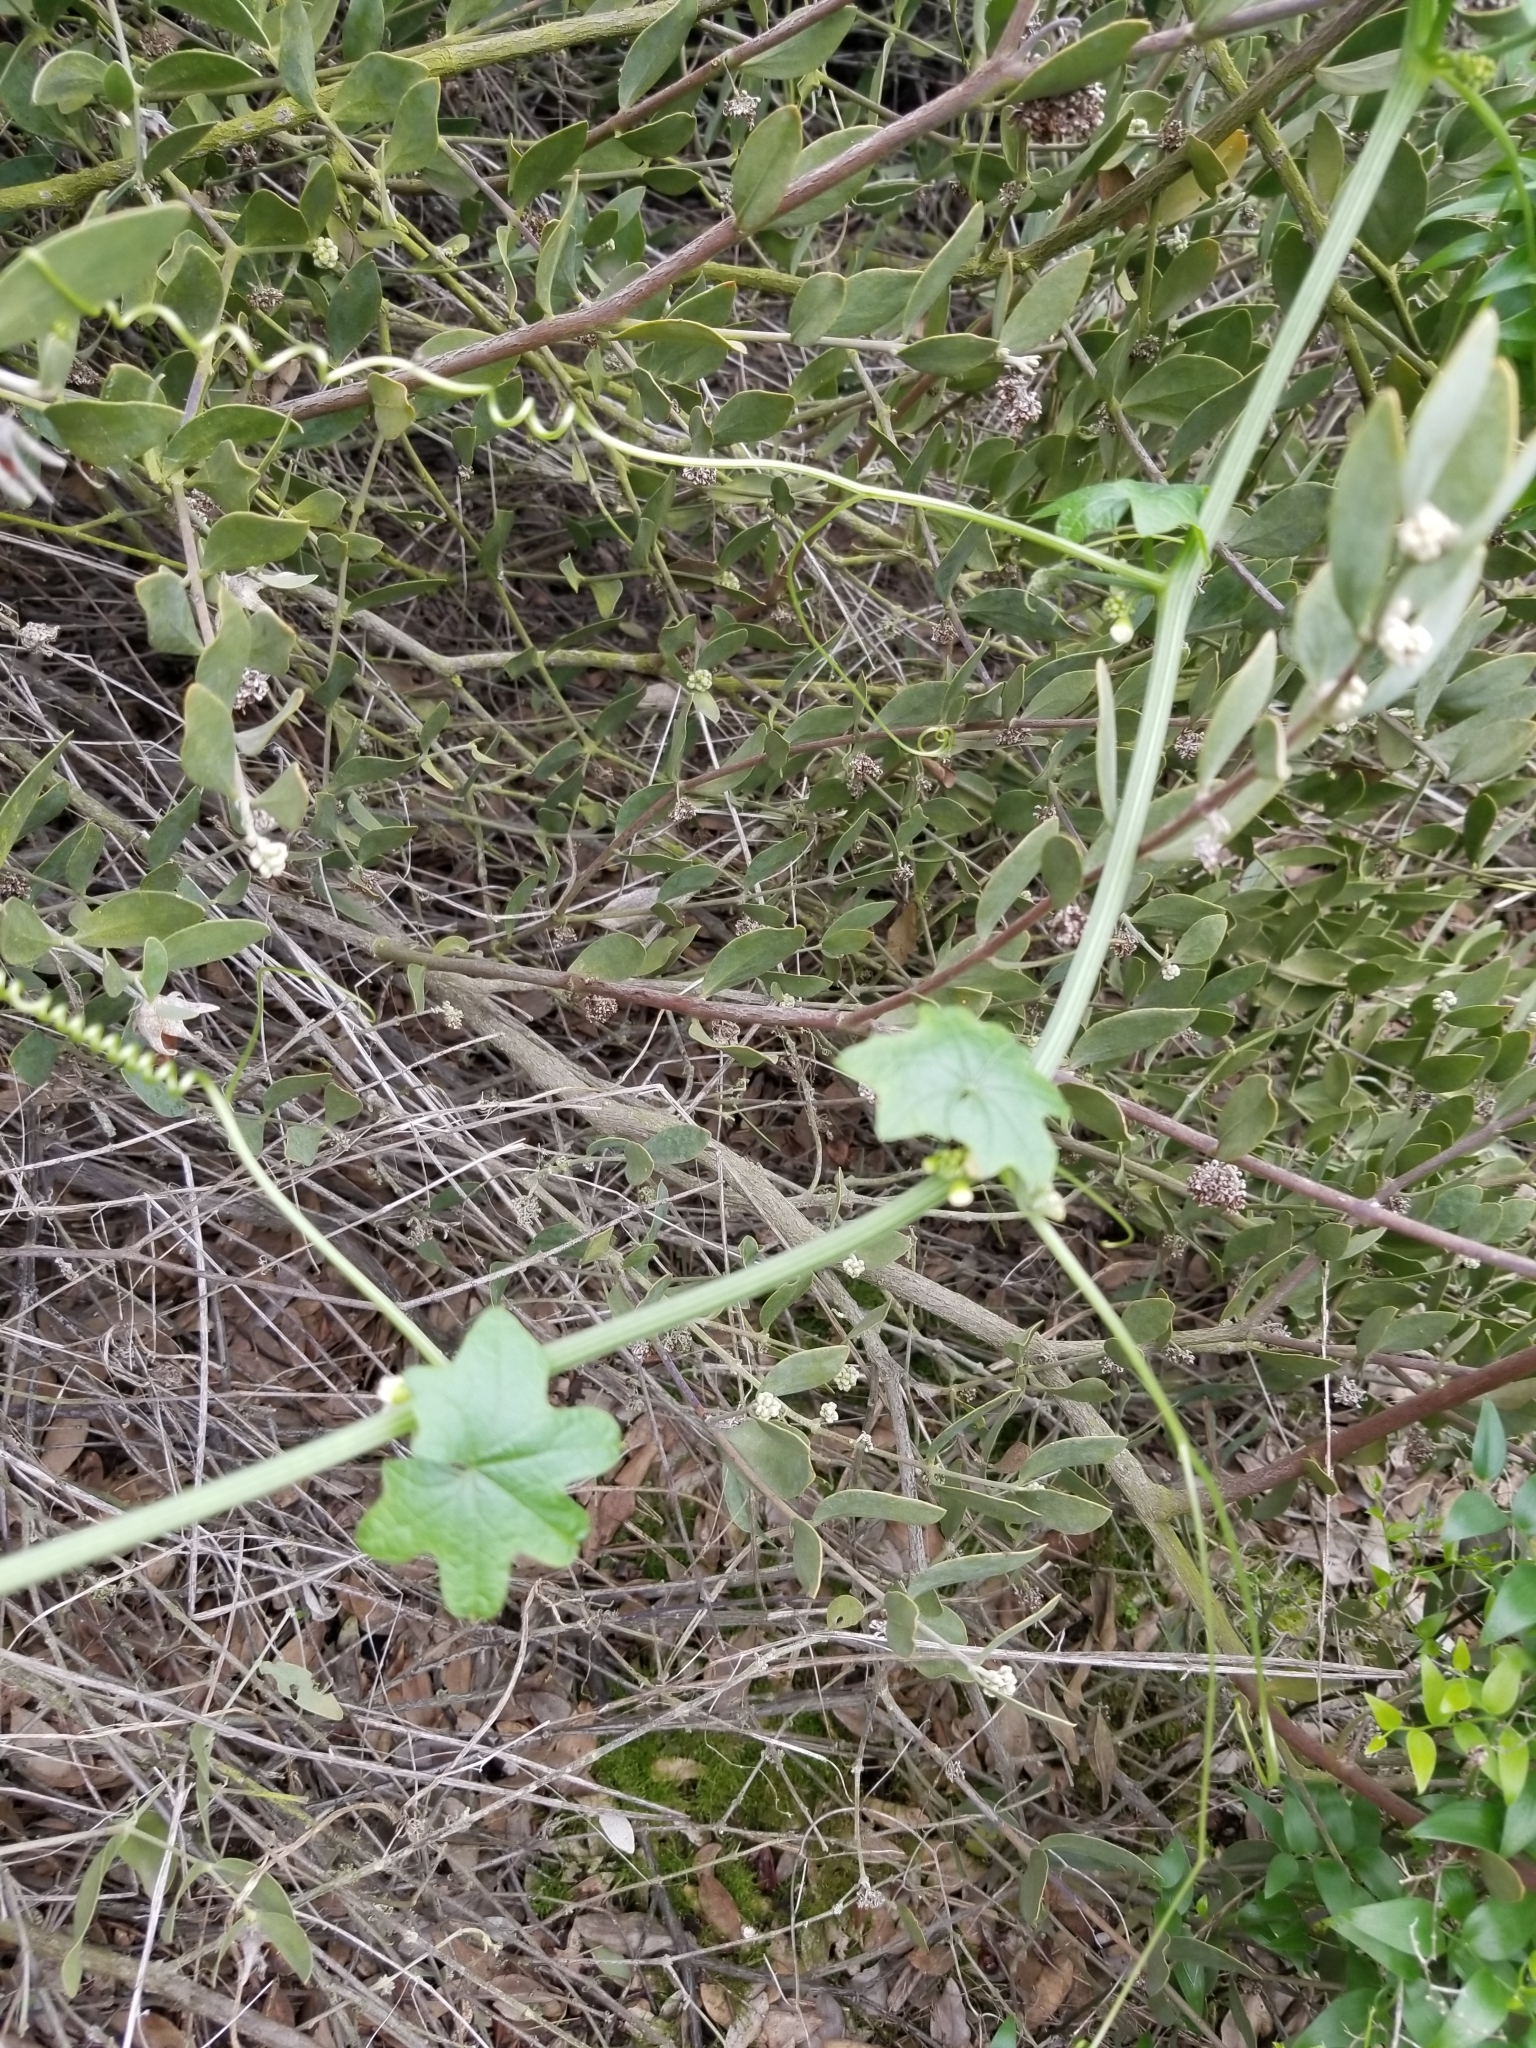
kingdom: Plantae
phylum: Tracheophyta
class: Magnoliopsida
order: Cucurbitales
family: Cucurbitaceae
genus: Marah
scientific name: Marah macrocarpa
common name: Cucamonga manroot
